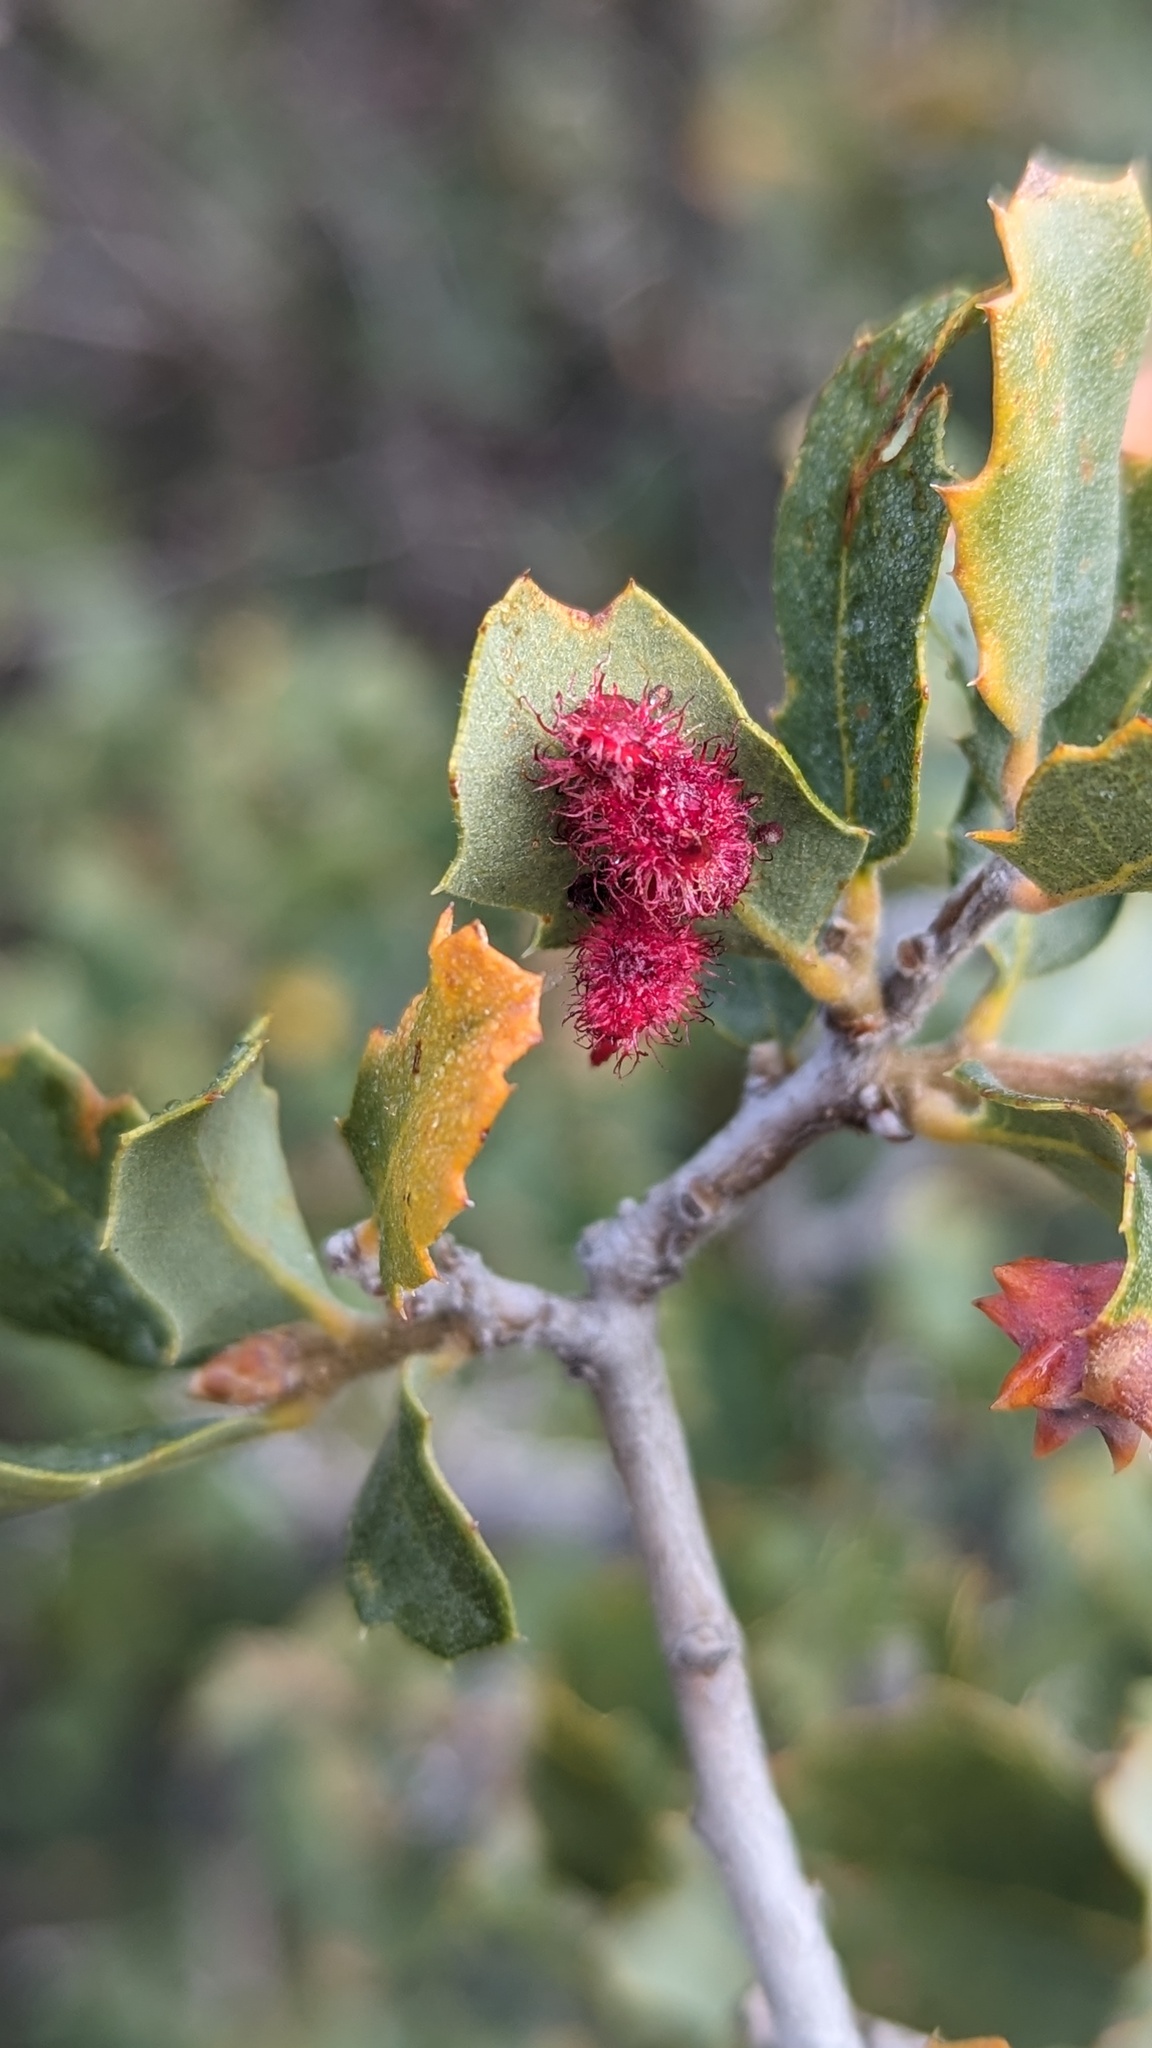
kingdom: Animalia
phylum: Arthropoda
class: Insecta
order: Hymenoptera
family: Cynipidae
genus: Andricus
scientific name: Andricus
